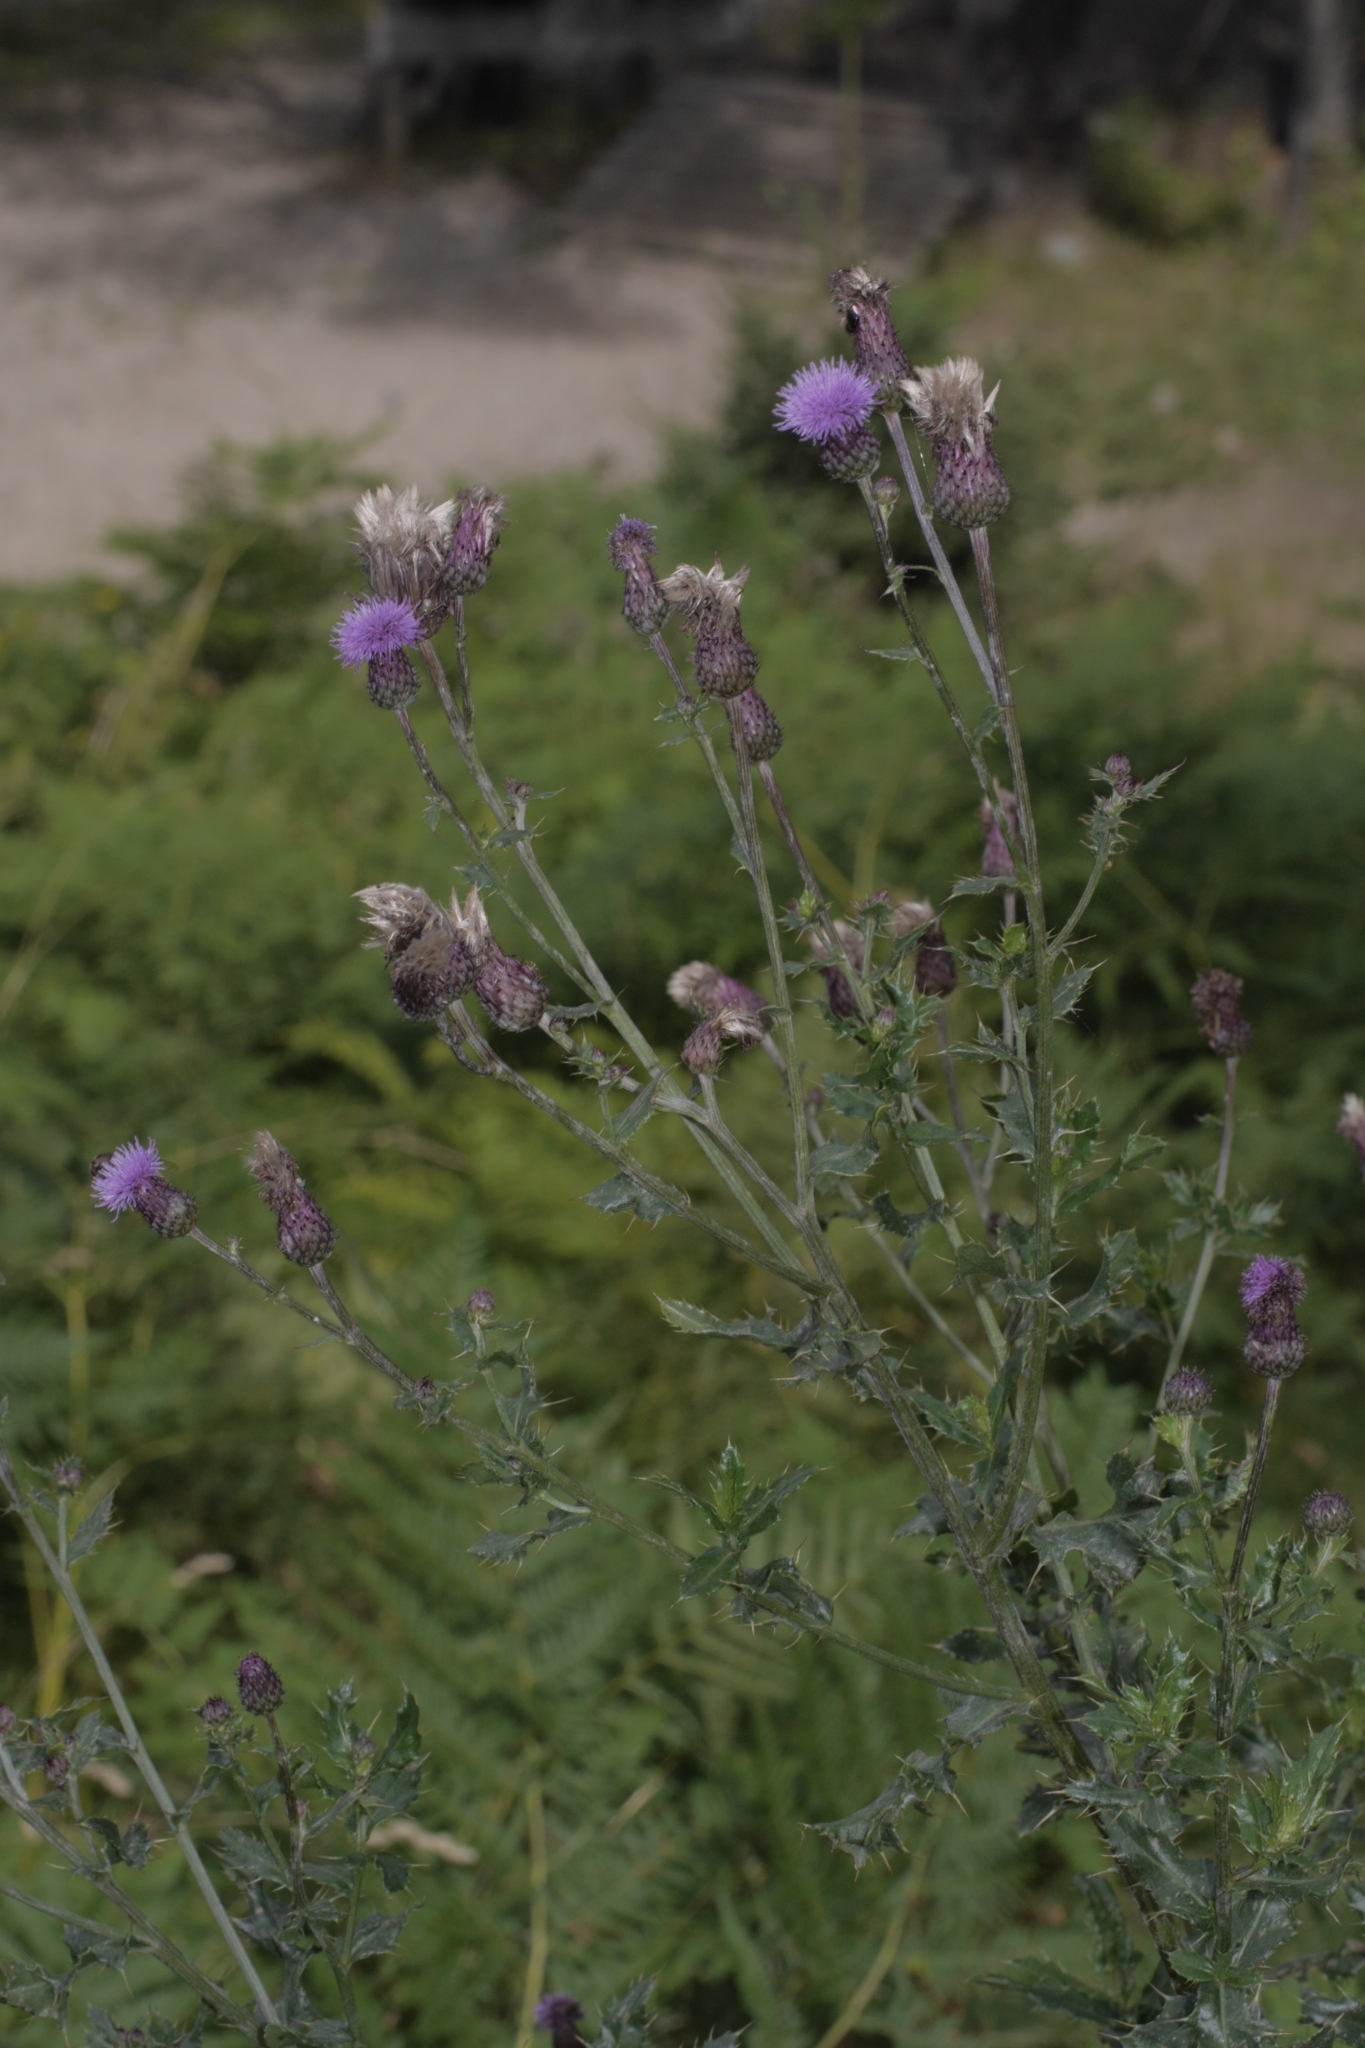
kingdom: Plantae
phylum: Tracheophyta
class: Magnoliopsida
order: Asterales
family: Asteraceae
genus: Cirsium
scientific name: Cirsium arvense
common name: Creeping thistle
